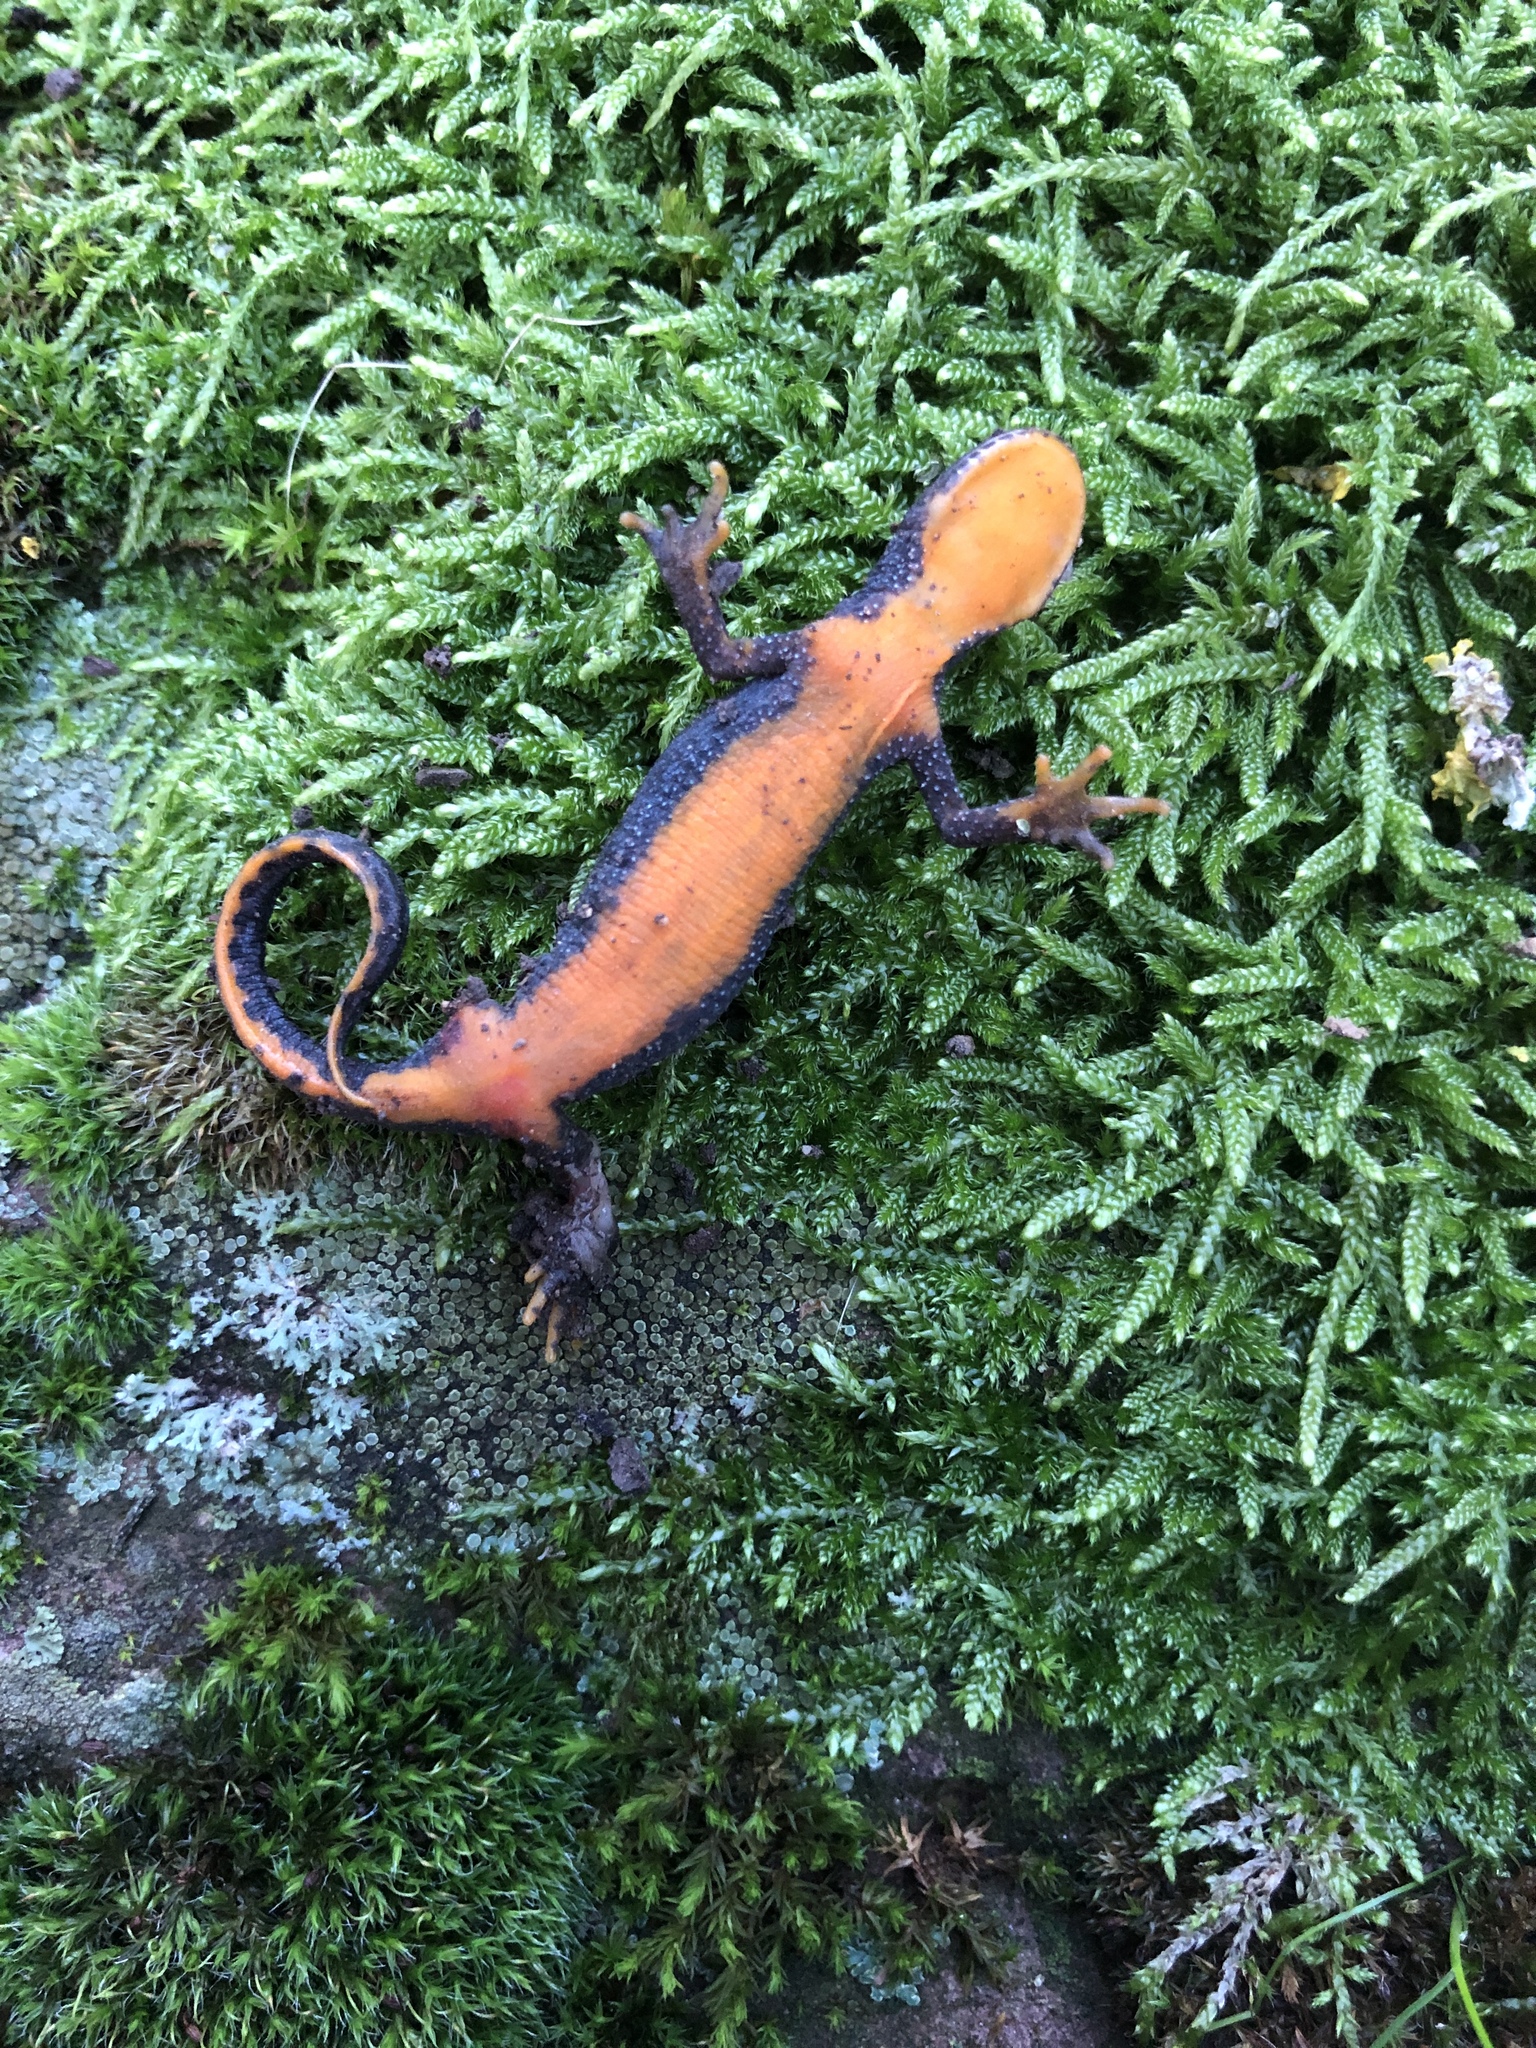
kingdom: Animalia
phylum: Chordata
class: Amphibia
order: Caudata
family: Salamandridae
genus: Ichthyosaura
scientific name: Ichthyosaura alpestris
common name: Alpine newt
